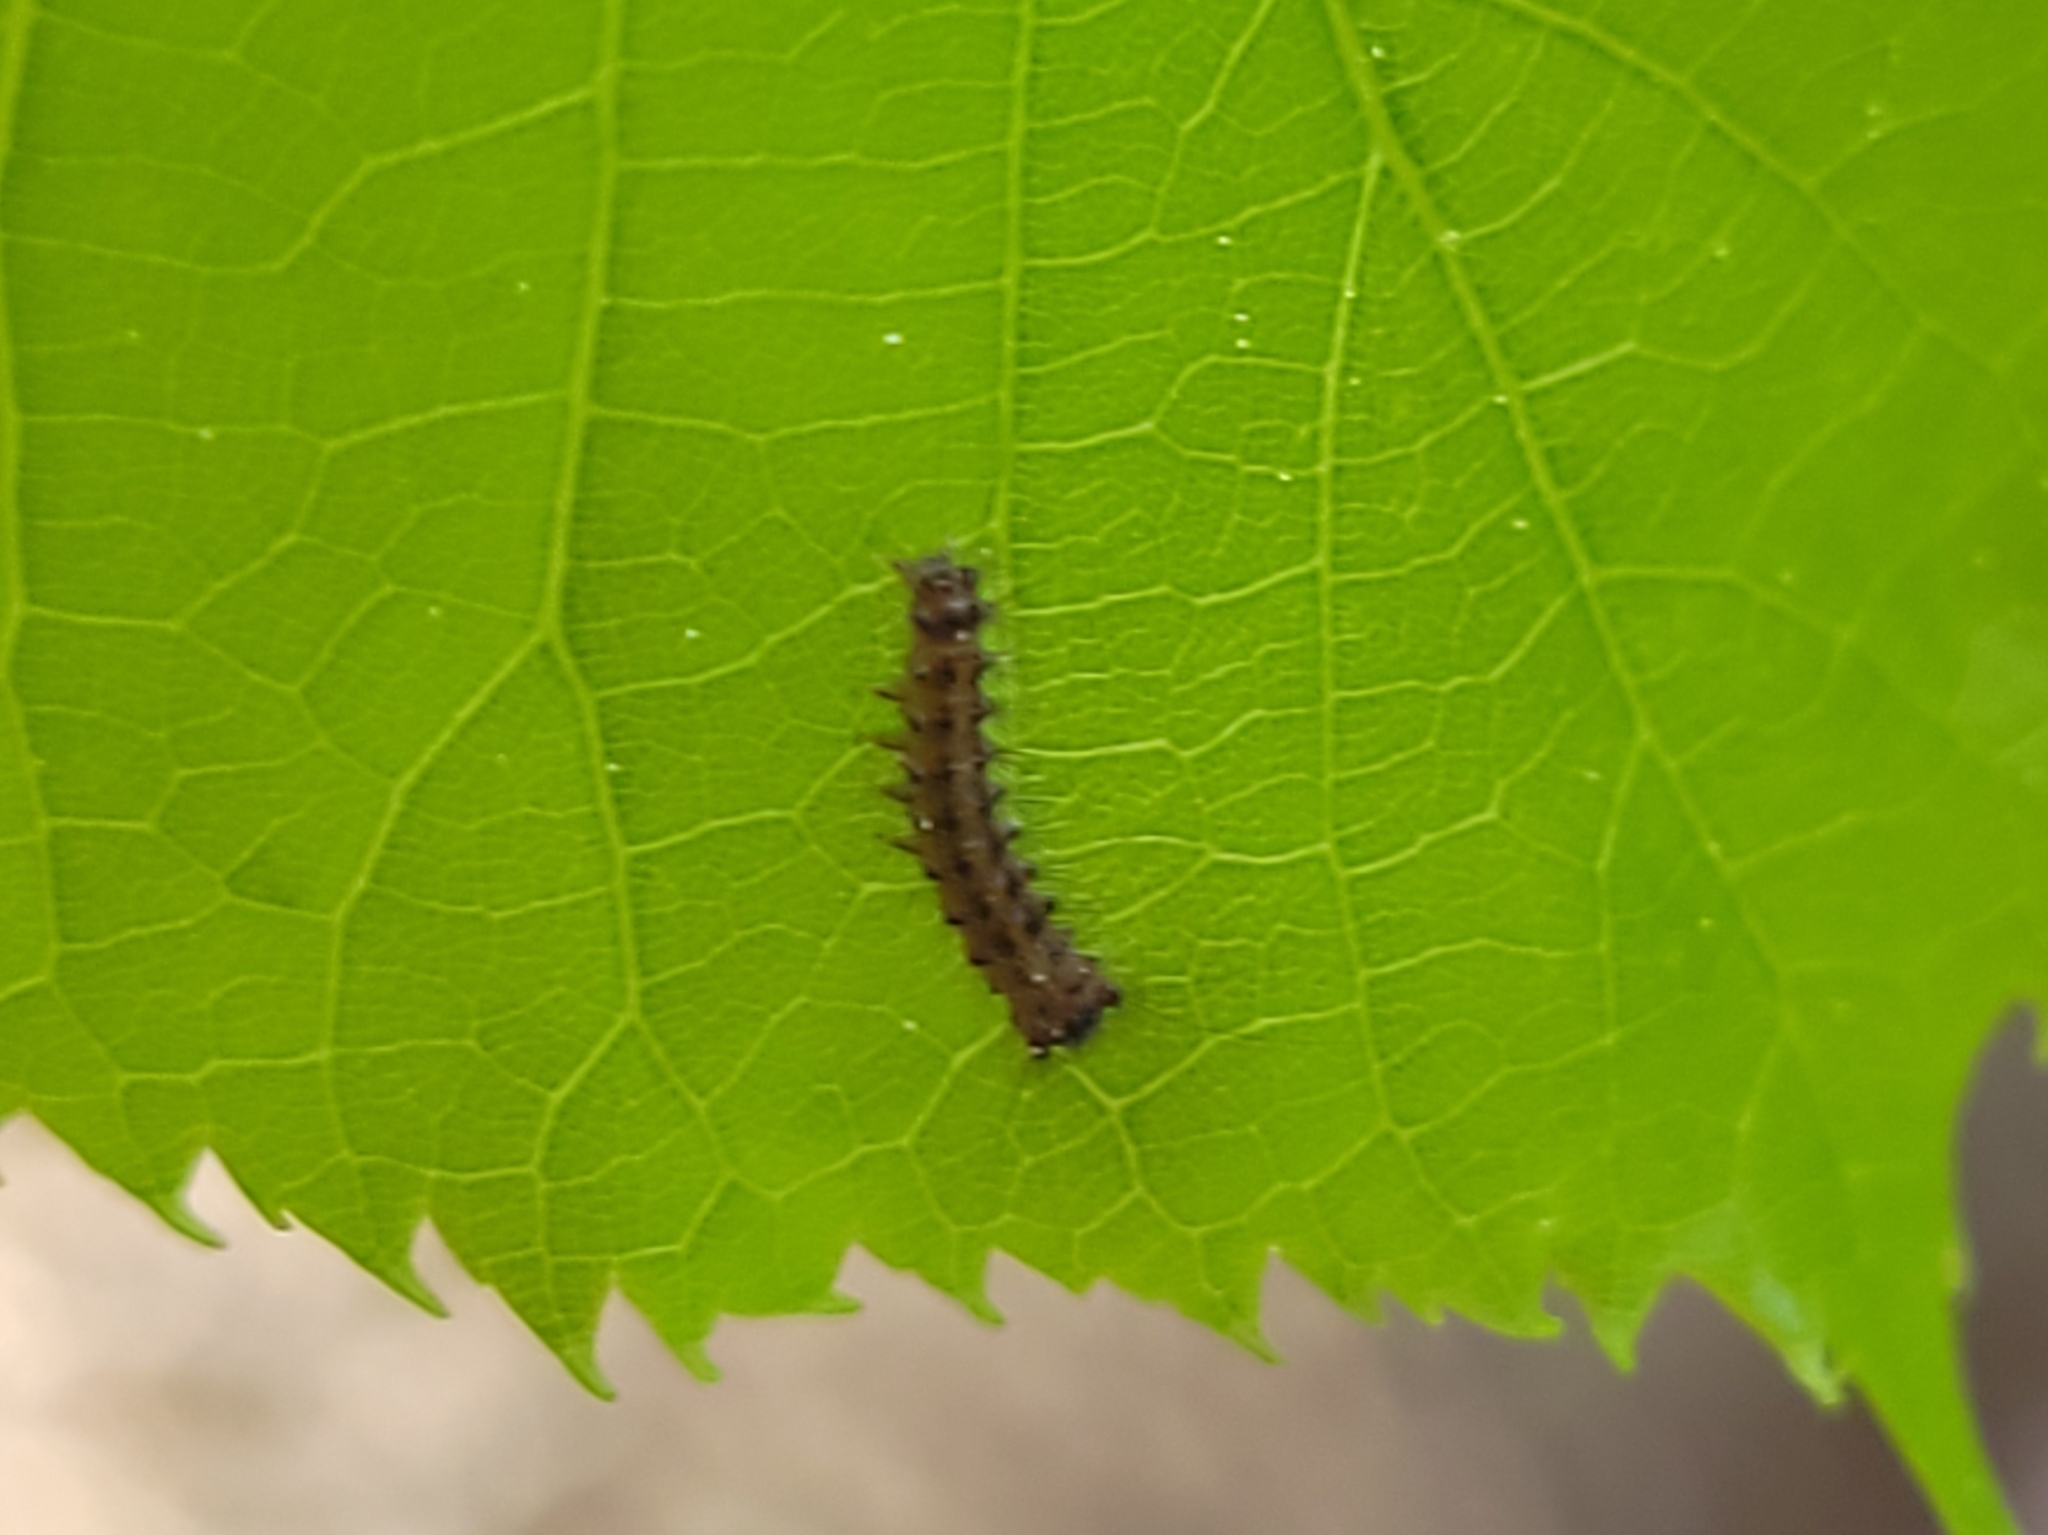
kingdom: Animalia
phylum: Arthropoda
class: Insecta
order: Lepidoptera
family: Erebidae
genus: Lymantria
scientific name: Lymantria dispar
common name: Gypsy moth
